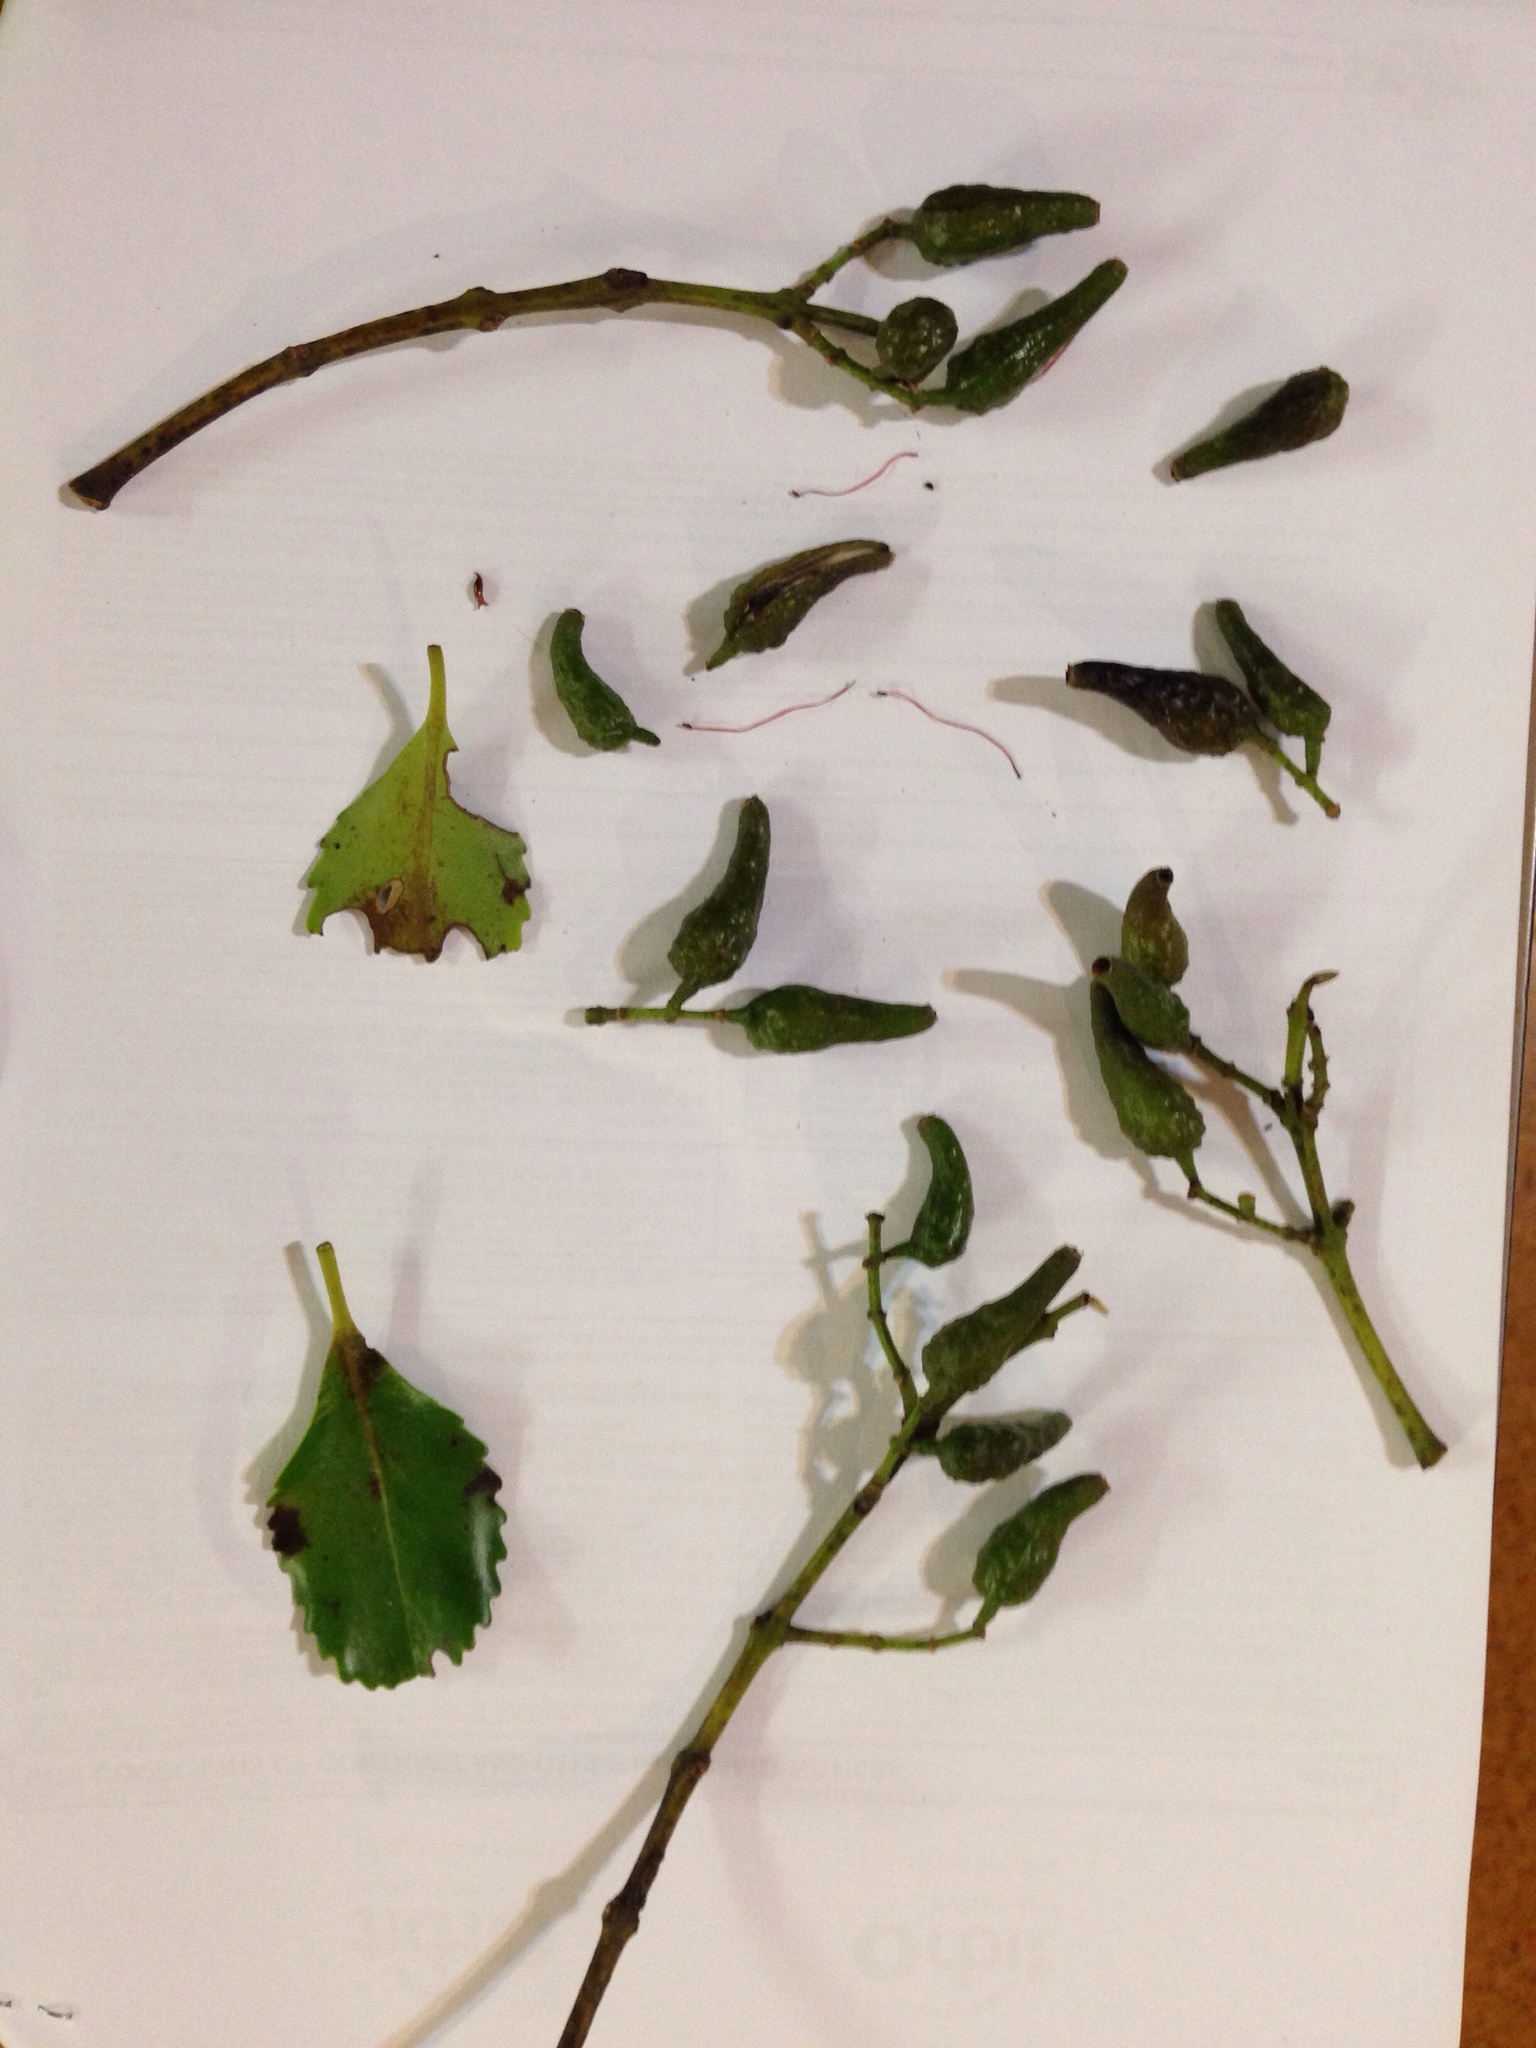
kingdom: Plantae
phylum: Tracheophyta
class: Magnoliopsida
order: Laurales
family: Atherospermataceae
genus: Laurelia
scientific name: Laurelia novae-zelandiae
